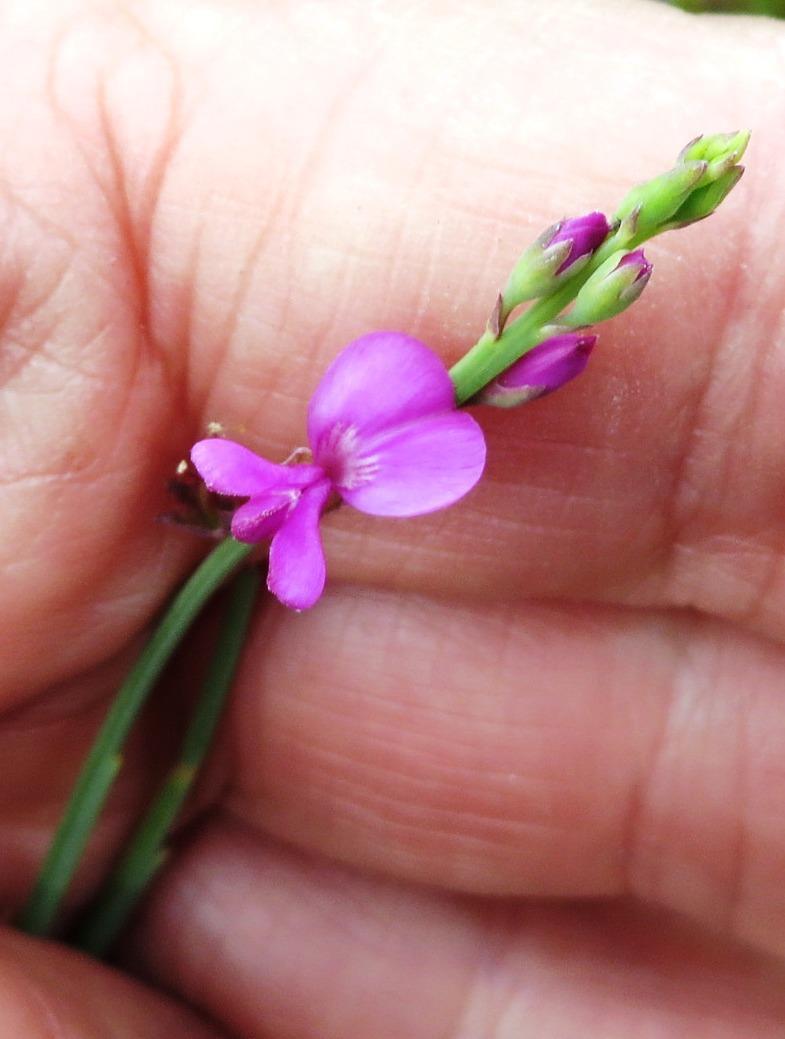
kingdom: Plantae
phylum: Tracheophyta
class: Magnoliopsida
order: Fabales
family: Fabaceae
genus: Indigofera
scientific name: Indigofera ionii
